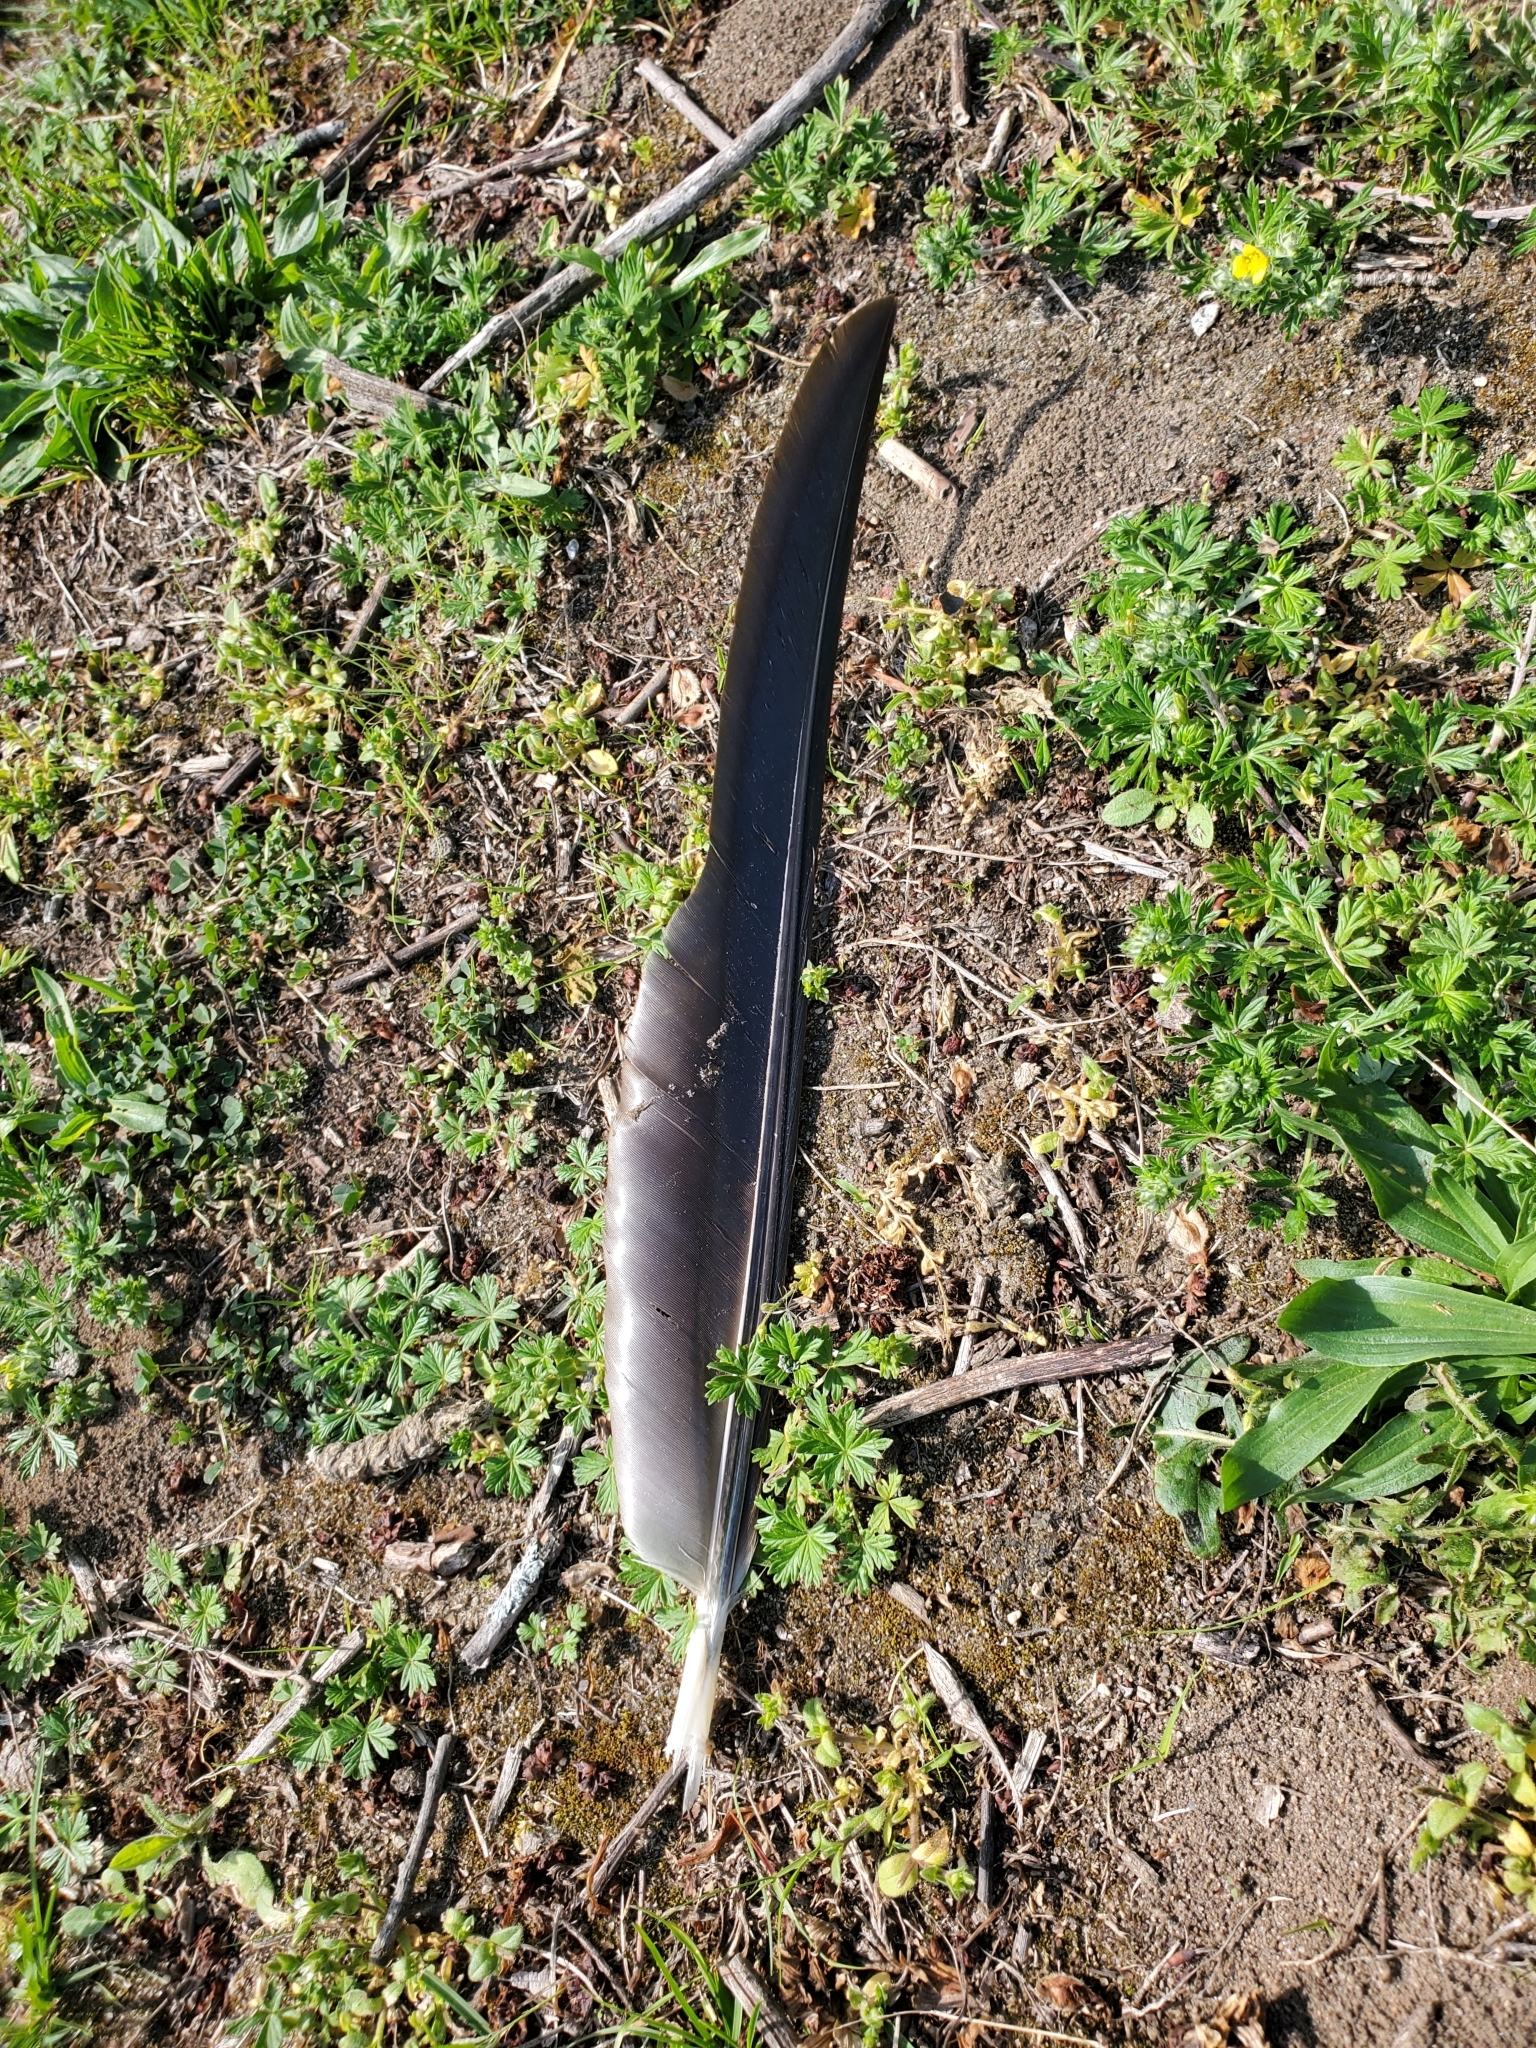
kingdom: Animalia
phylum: Chordata
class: Aves
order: Anseriformes
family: Anatidae
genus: Branta
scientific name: Branta canadensis
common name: Canada goose
